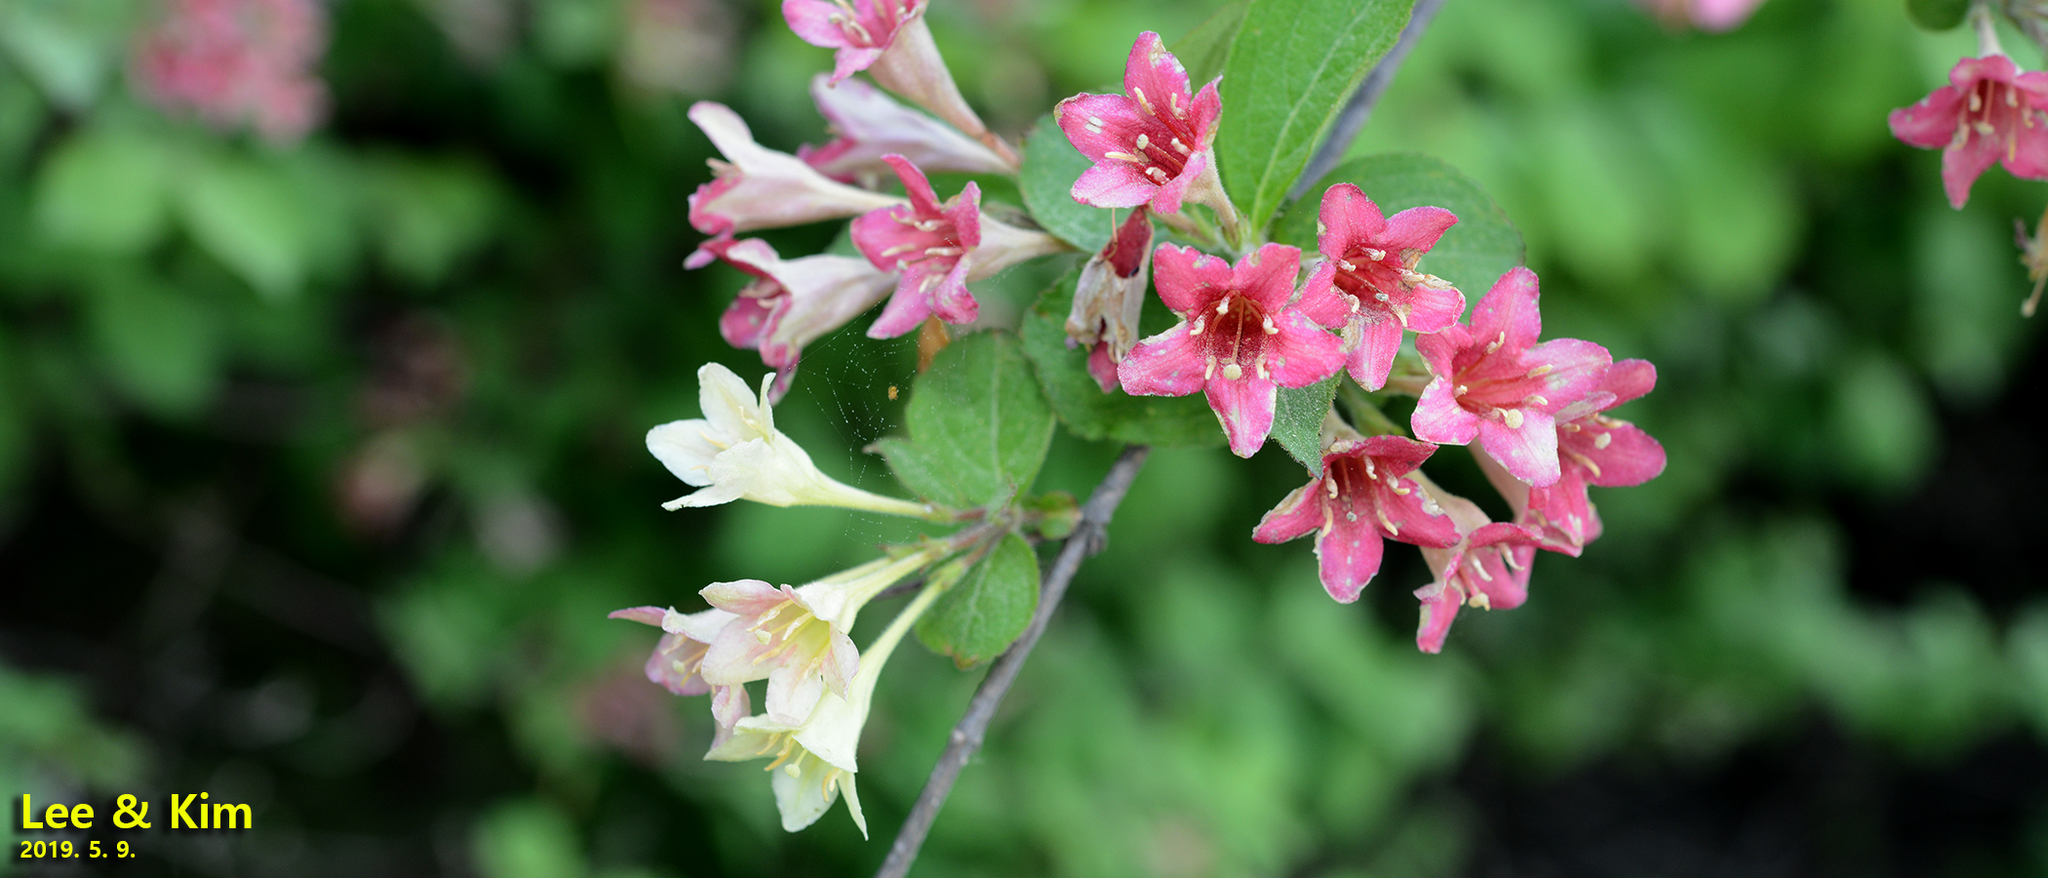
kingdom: Plantae
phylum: Tracheophyta
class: Magnoliopsida
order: Dipsacales
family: Caprifoliaceae
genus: Weigela
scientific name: Weigela subsessilis
